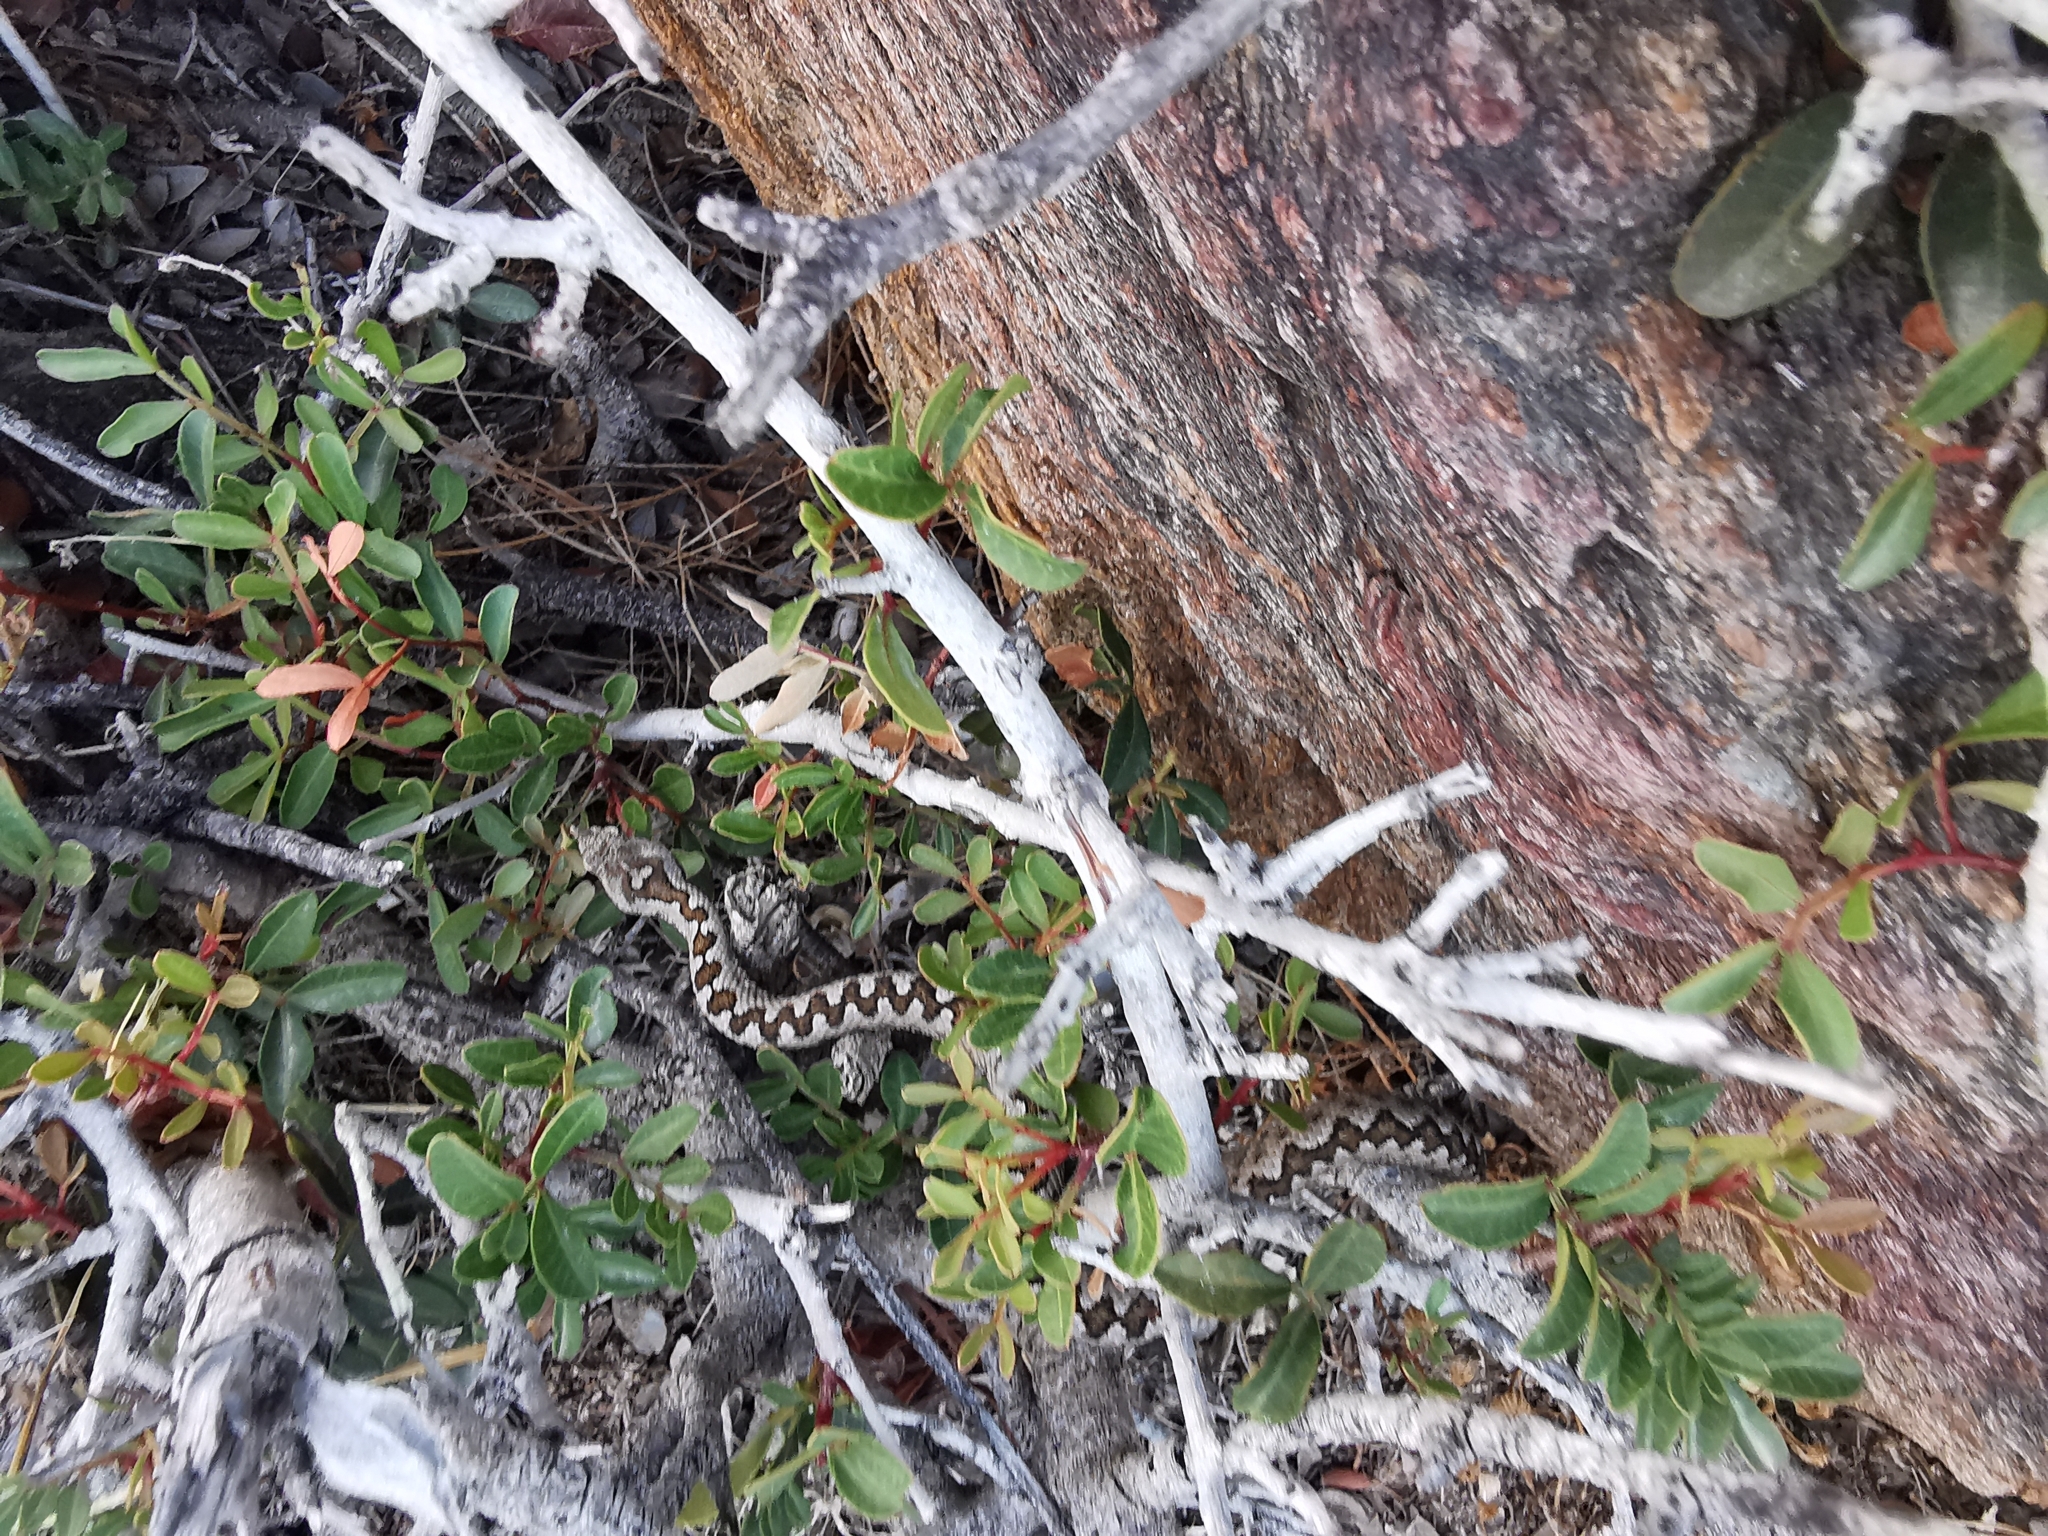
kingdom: Animalia
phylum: Chordata
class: Squamata
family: Viperidae
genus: Vipera
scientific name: Vipera ammodytes
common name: Sand viper
